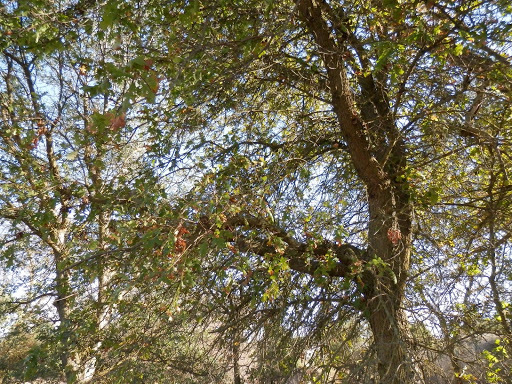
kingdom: Plantae
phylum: Tracheophyta
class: Magnoliopsida
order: Fagales
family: Fagaceae
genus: Quercus
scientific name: Quercus lobata
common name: Valley oak
